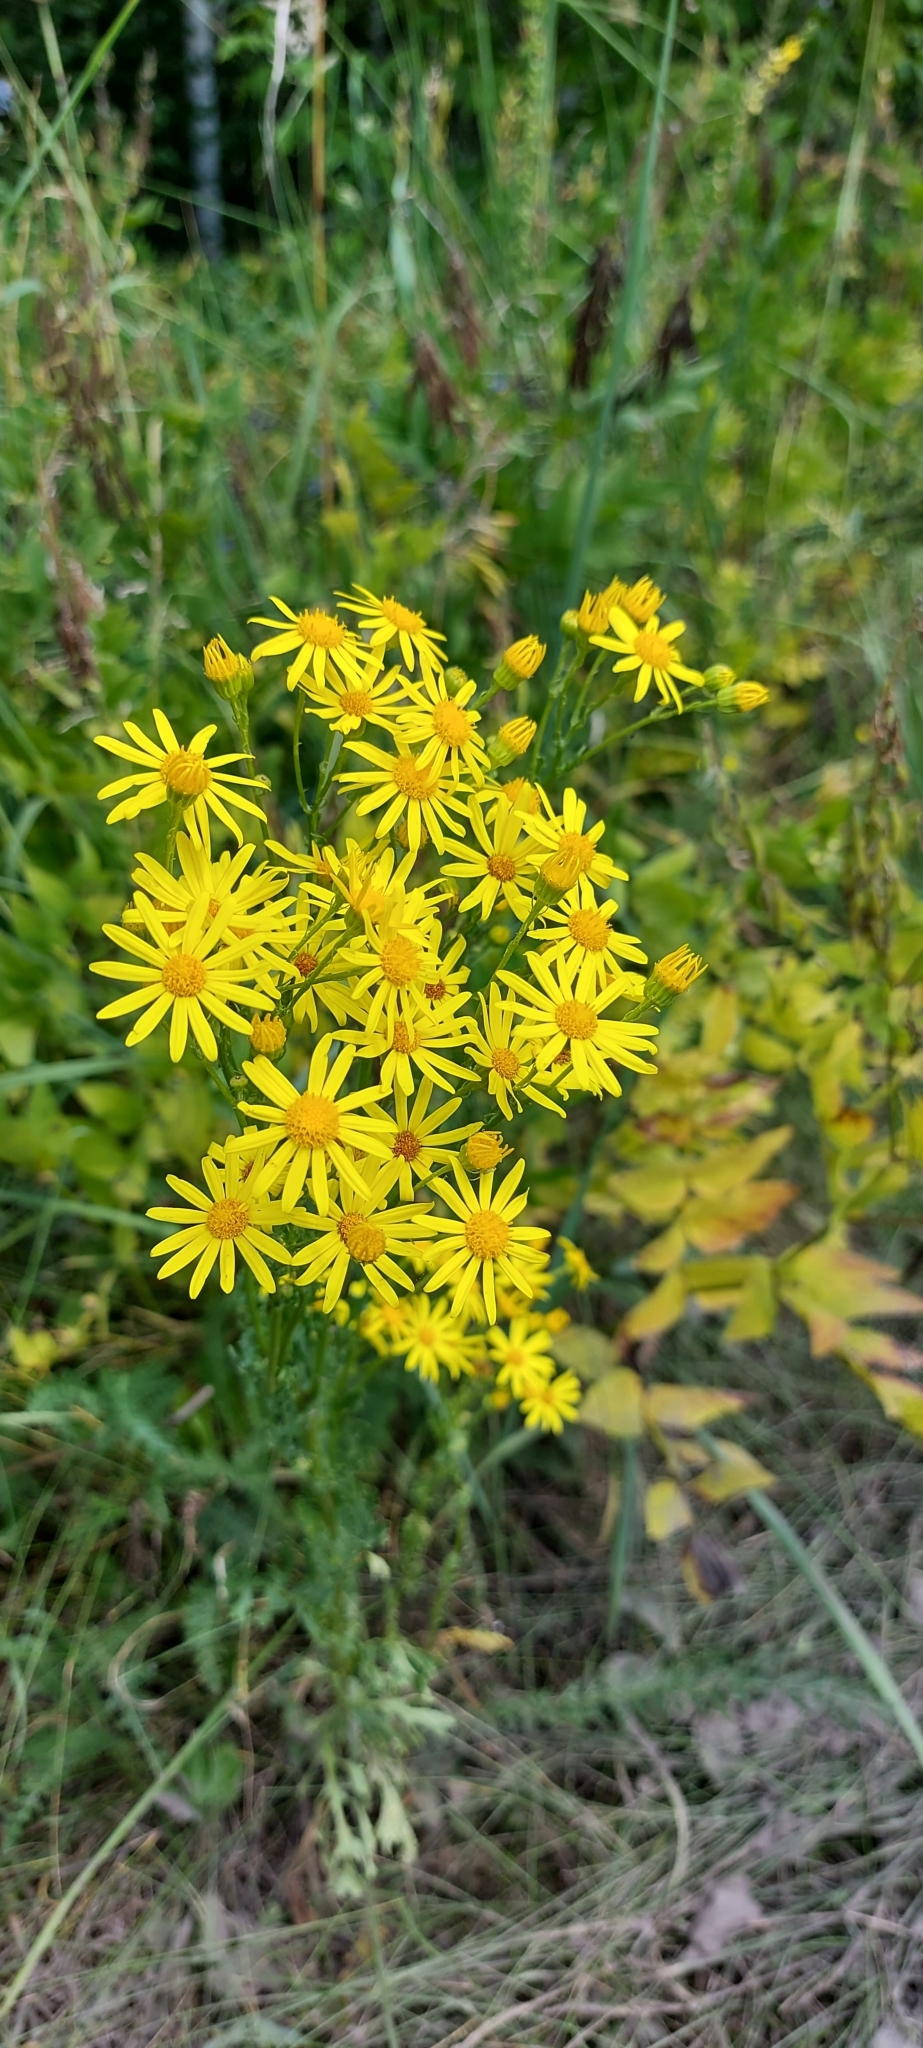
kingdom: Plantae
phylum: Tracheophyta
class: Magnoliopsida
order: Asterales
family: Asteraceae
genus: Jacobaea
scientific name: Jacobaea vulgaris
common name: Stinking willie
